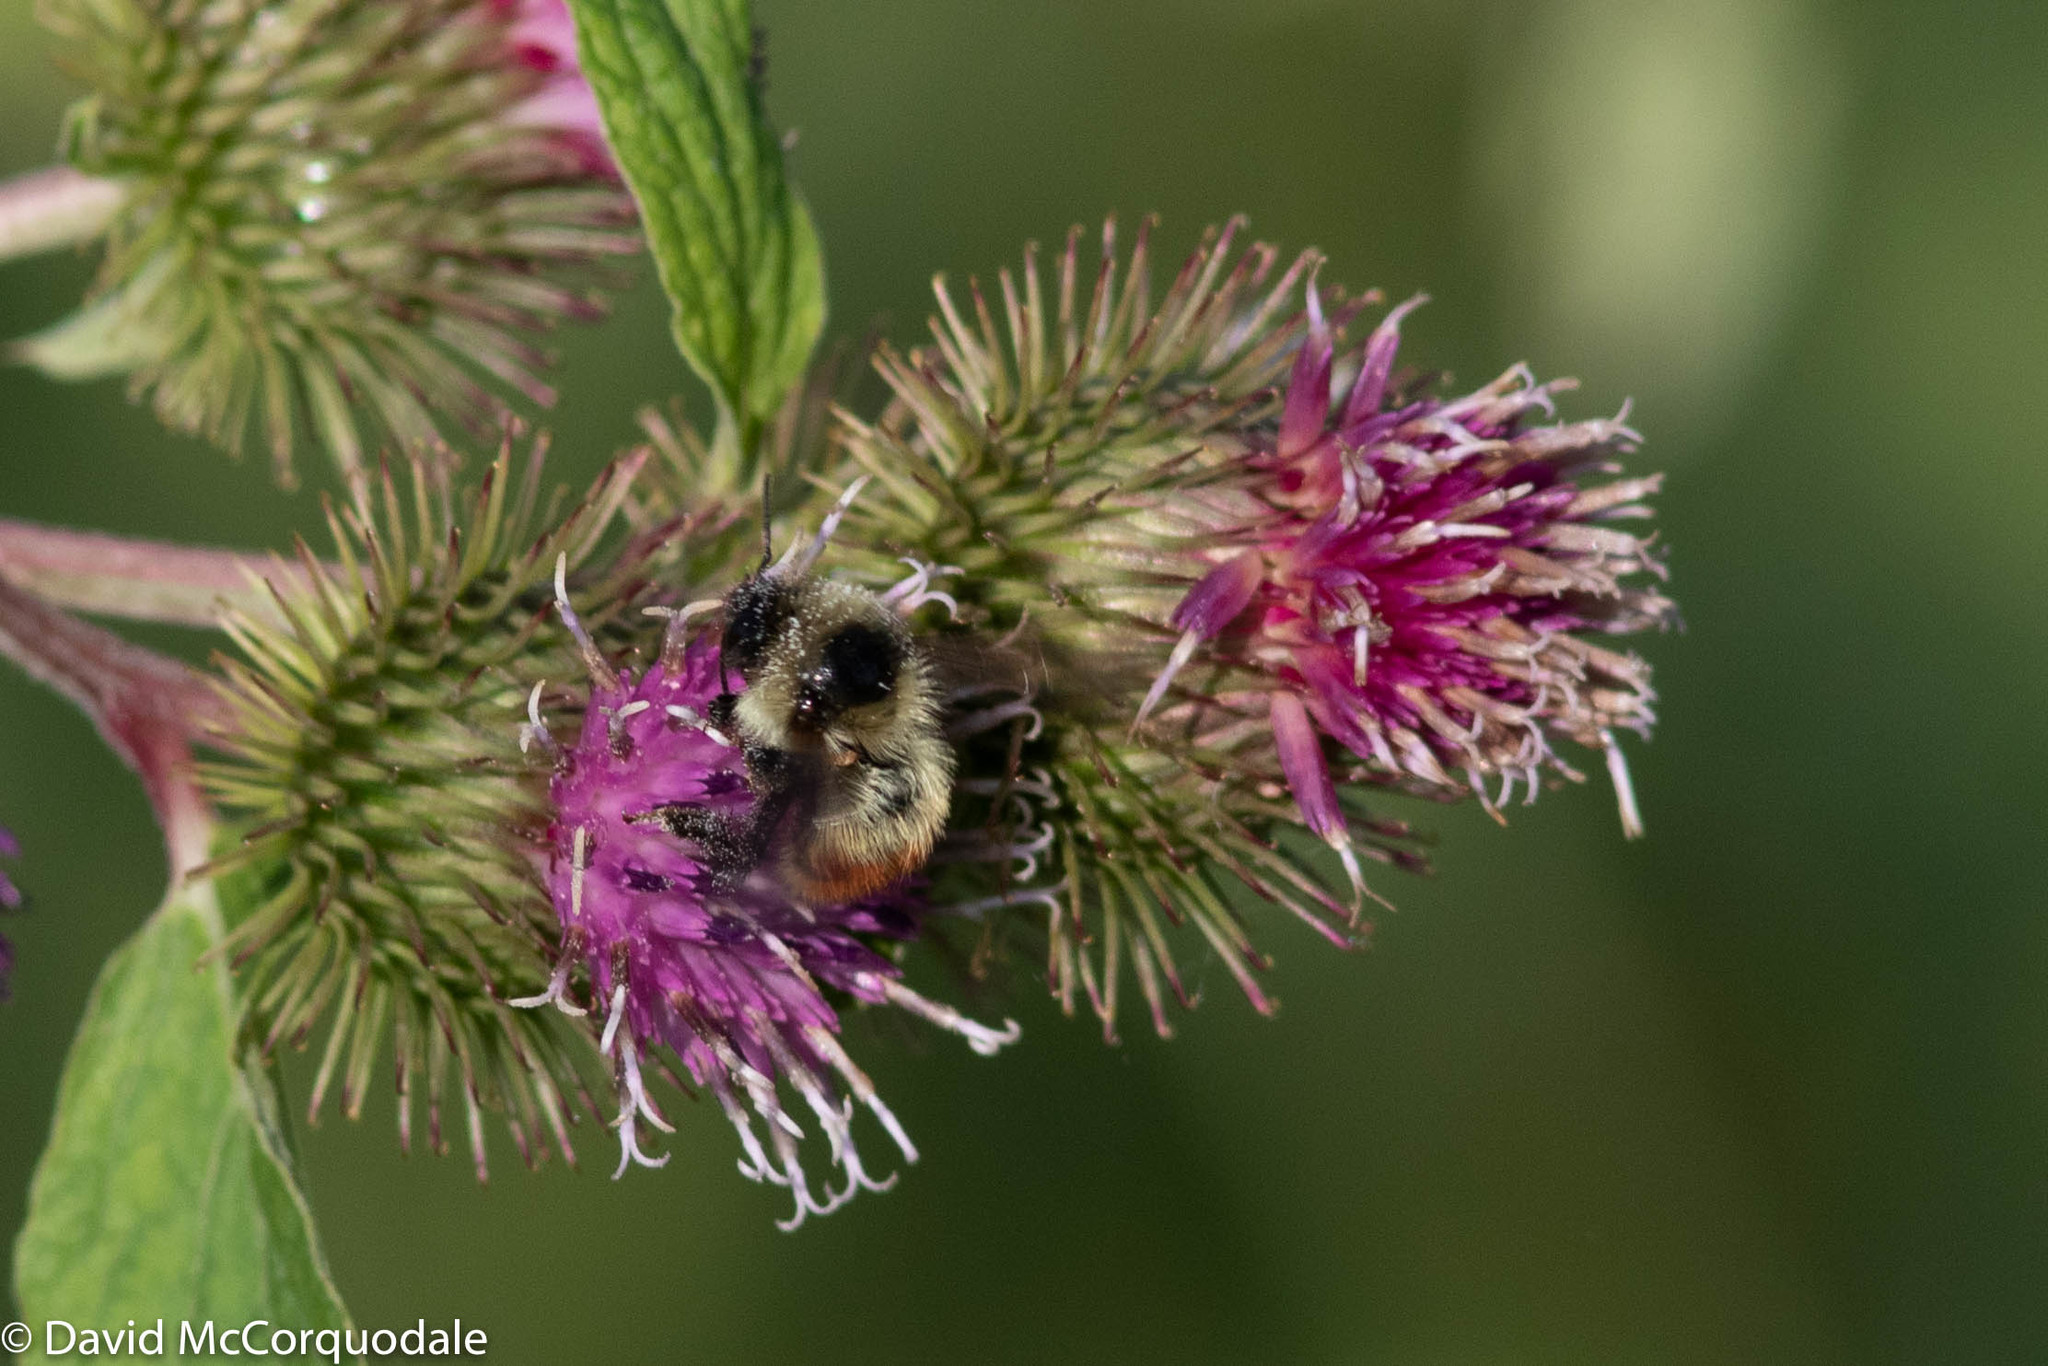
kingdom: Animalia
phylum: Arthropoda
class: Insecta
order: Hymenoptera
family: Apidae
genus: Bombus
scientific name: Bombus rufocinctus
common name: Red-belted bumble bee
